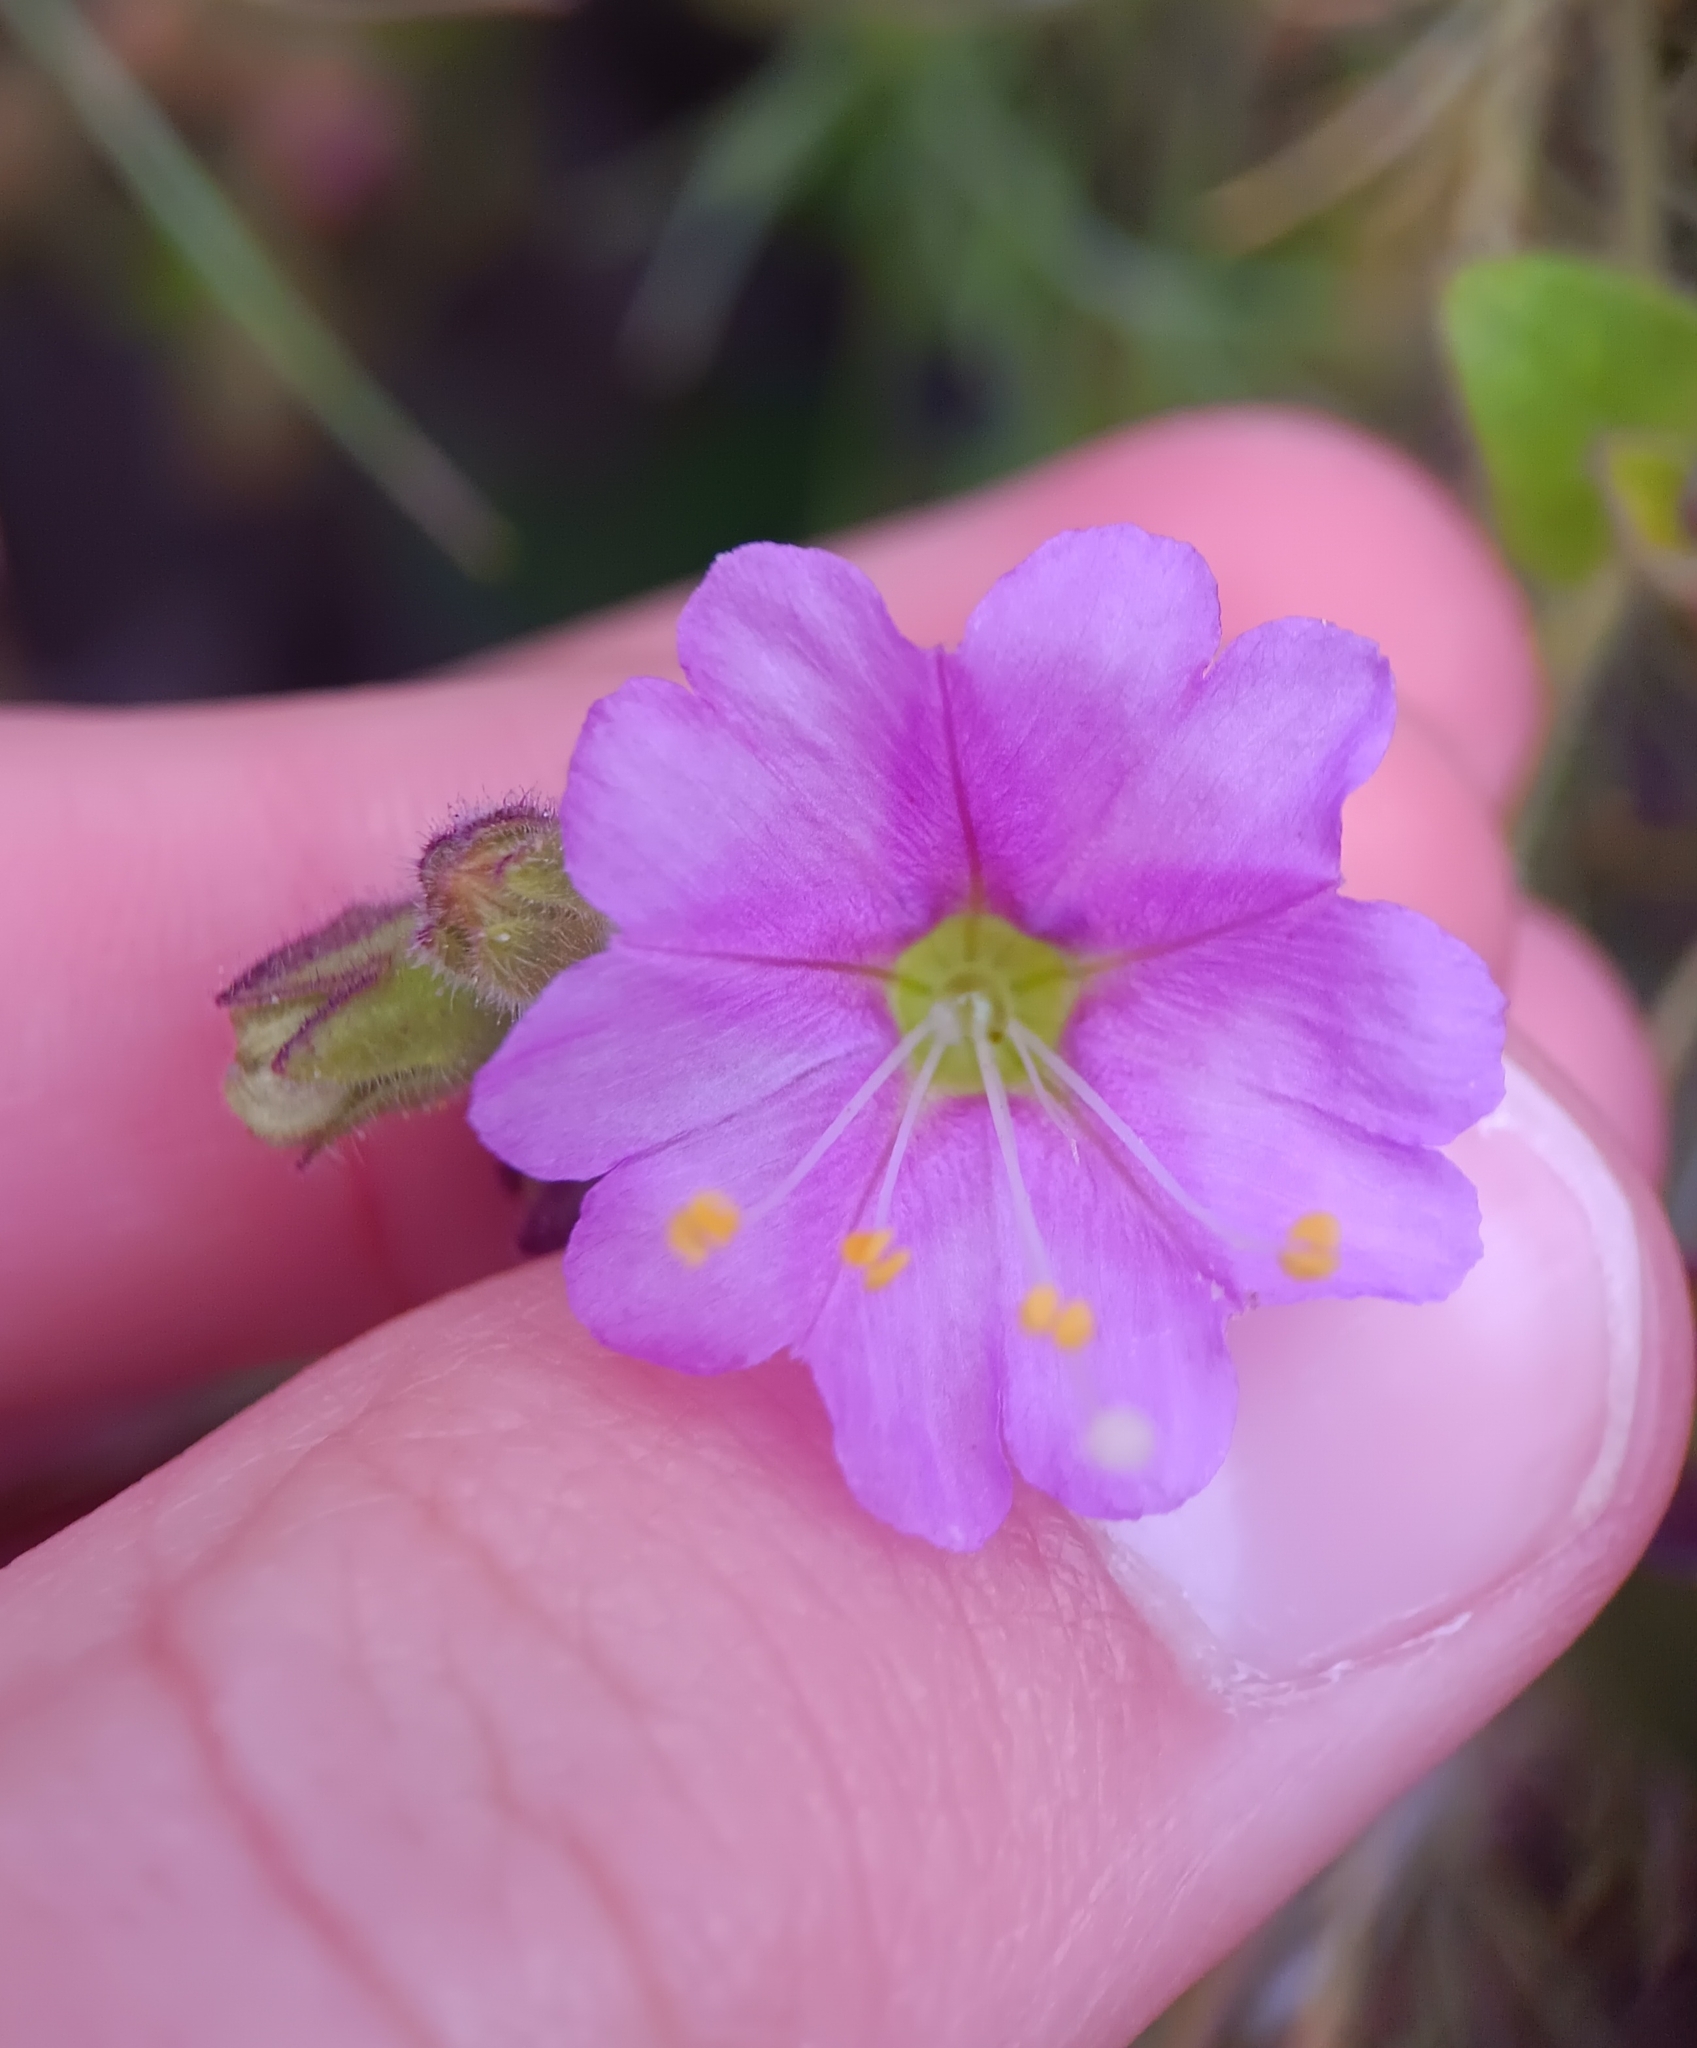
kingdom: Plantae
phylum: Tracheophyta
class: Magnoliopsida
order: Caryophyllales
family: Nyctaginaceae
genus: Mirabilis
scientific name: Mirabilis laevis
